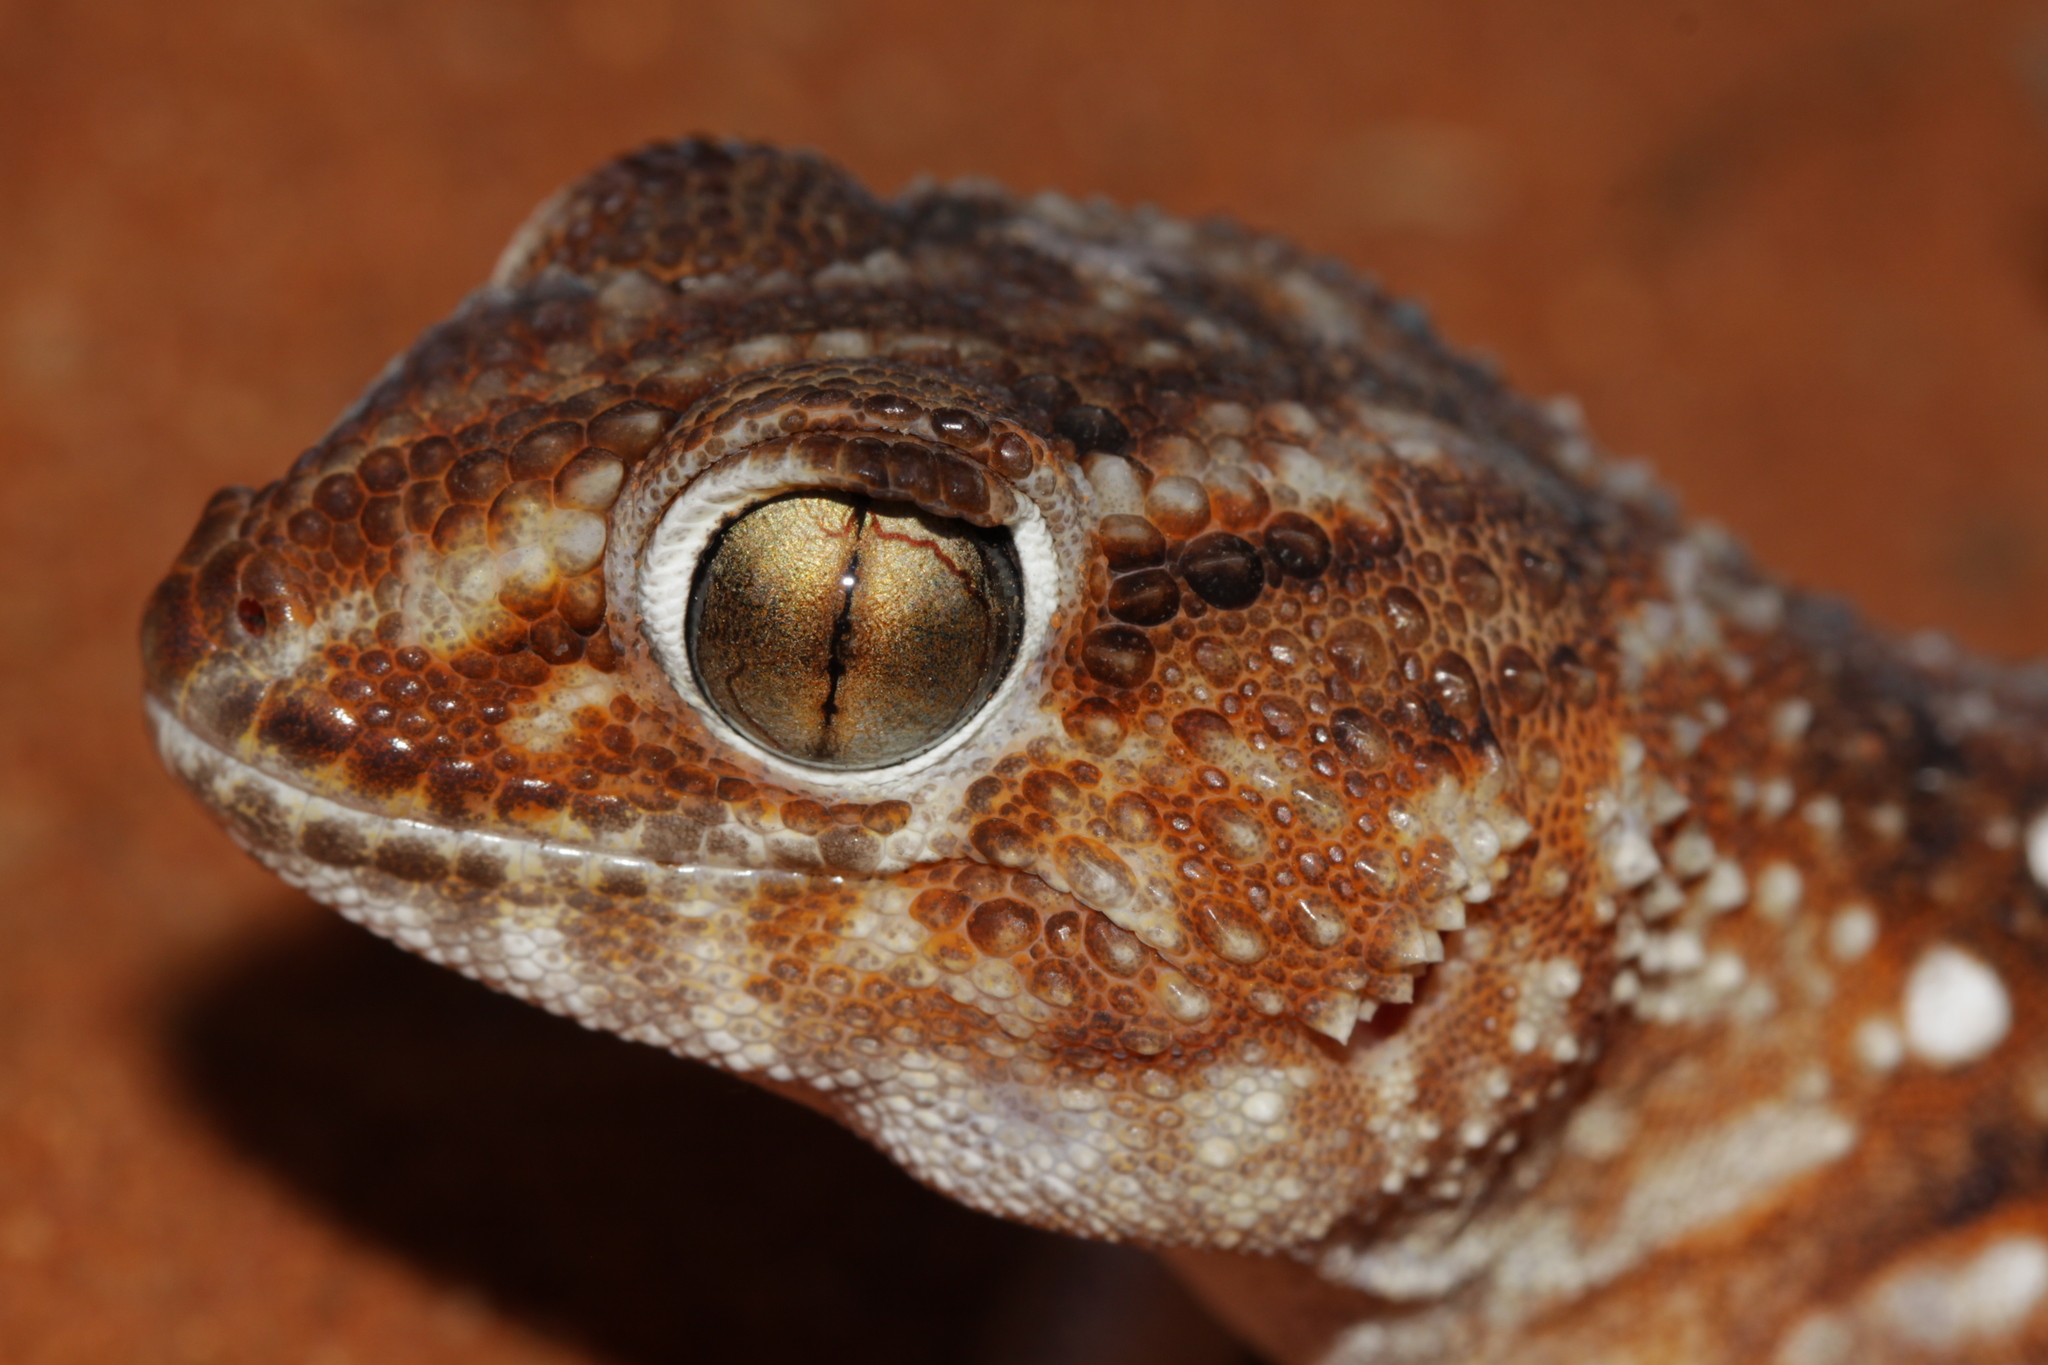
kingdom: Animalia
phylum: Chordata
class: Squamata
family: Gekkonidae
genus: Chondrodactylus
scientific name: Chondrodactylus angulifer
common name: Common giant ground gecko
